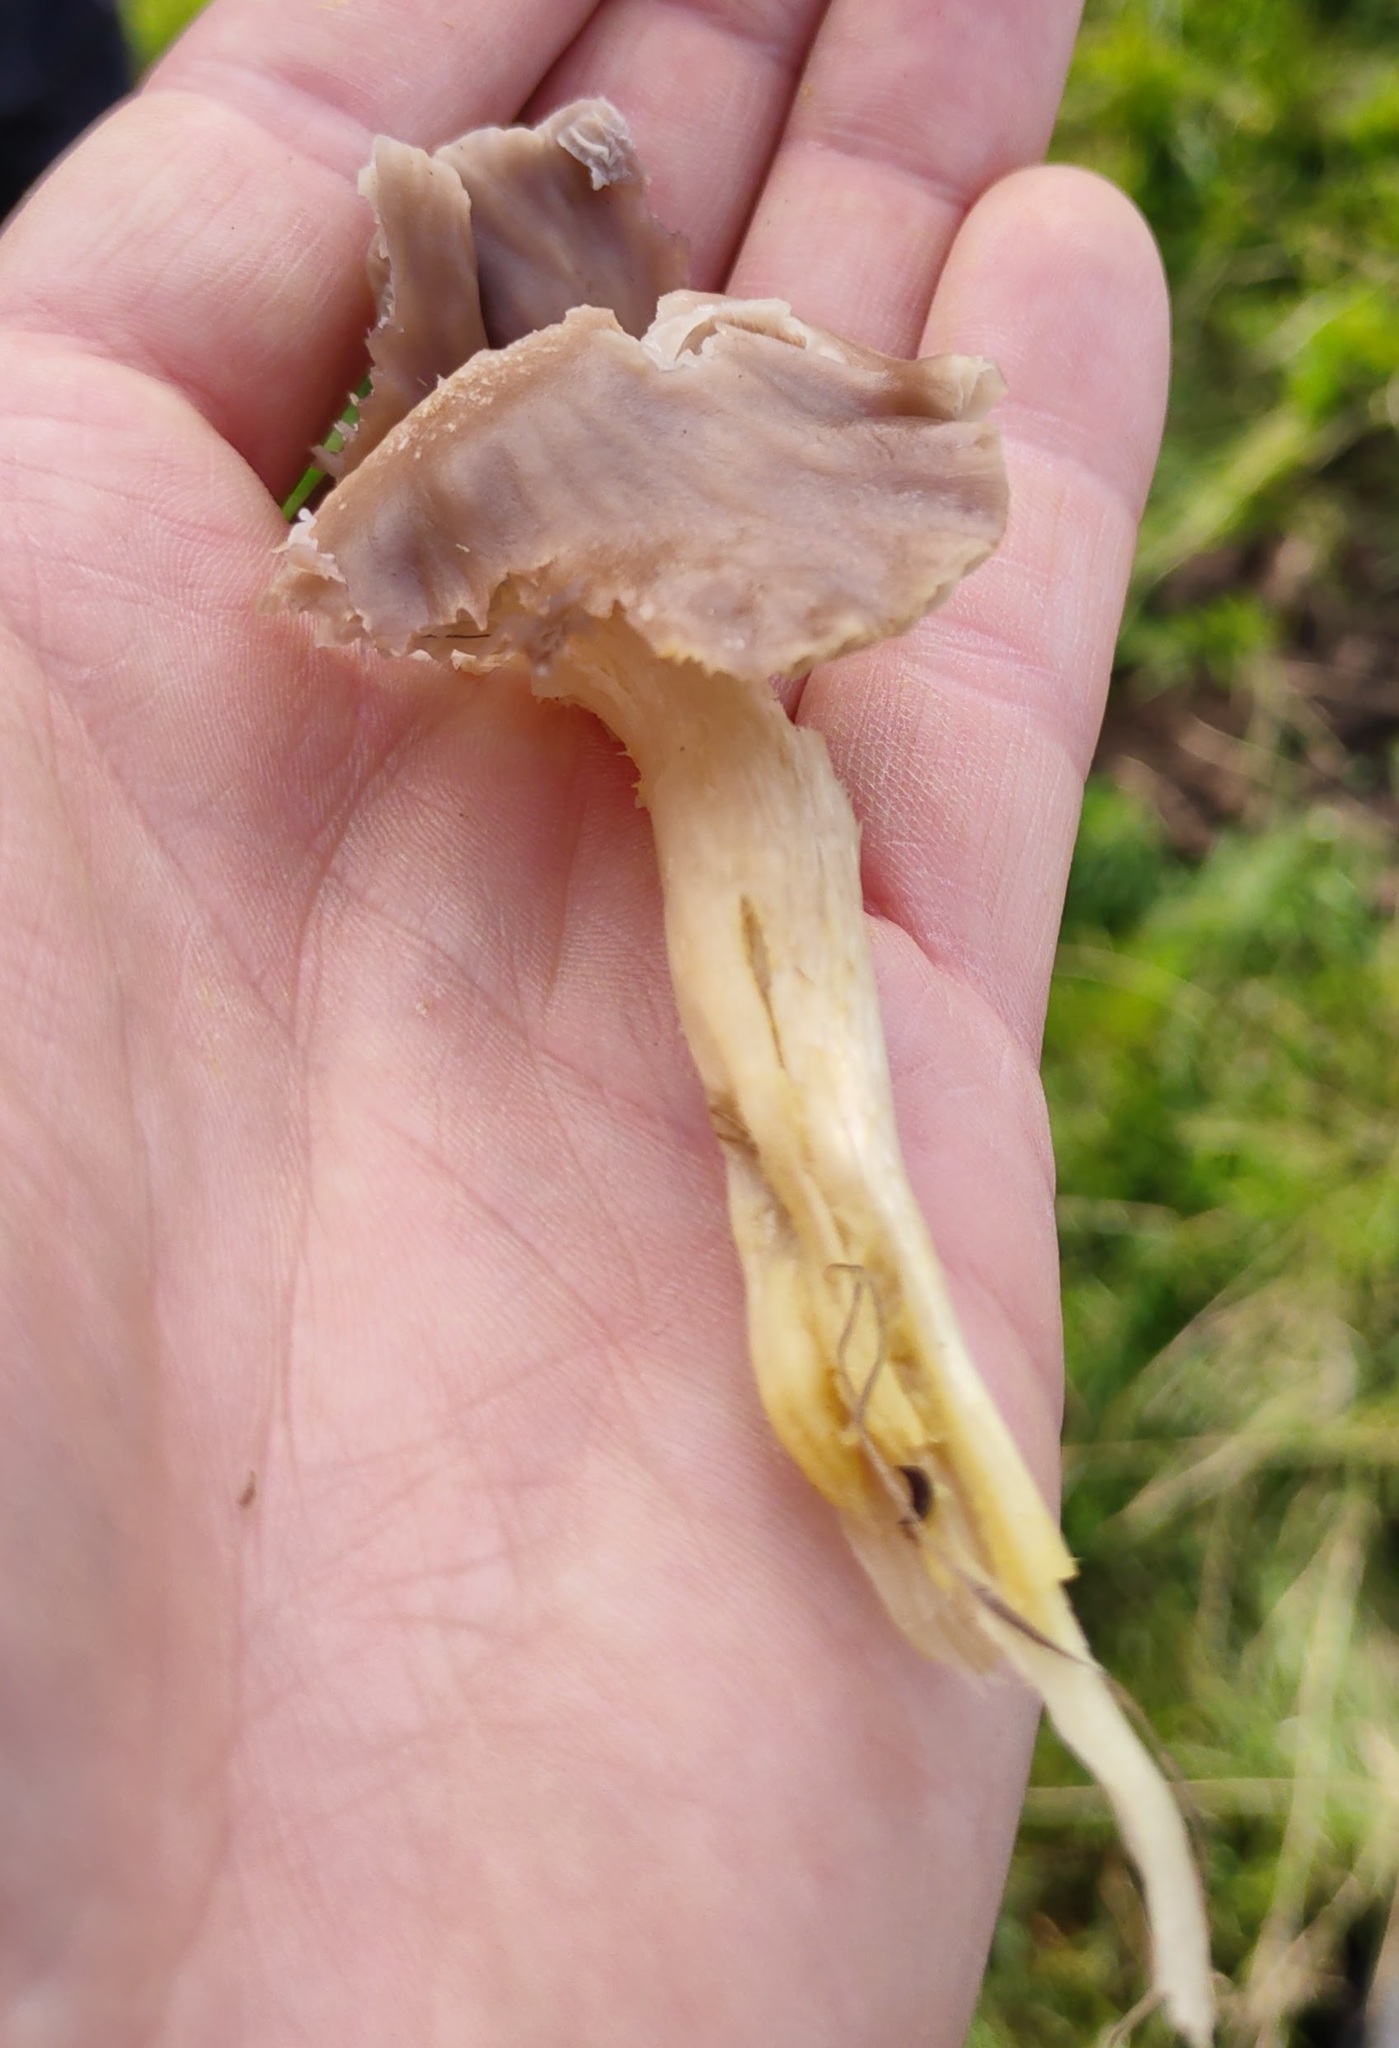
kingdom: Fungi
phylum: Basidiomycota
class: Agaricomycetes
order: Agaricales
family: Hygrophoraceae
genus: Cuphophyllus
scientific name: Cuphophyllus flavipes
